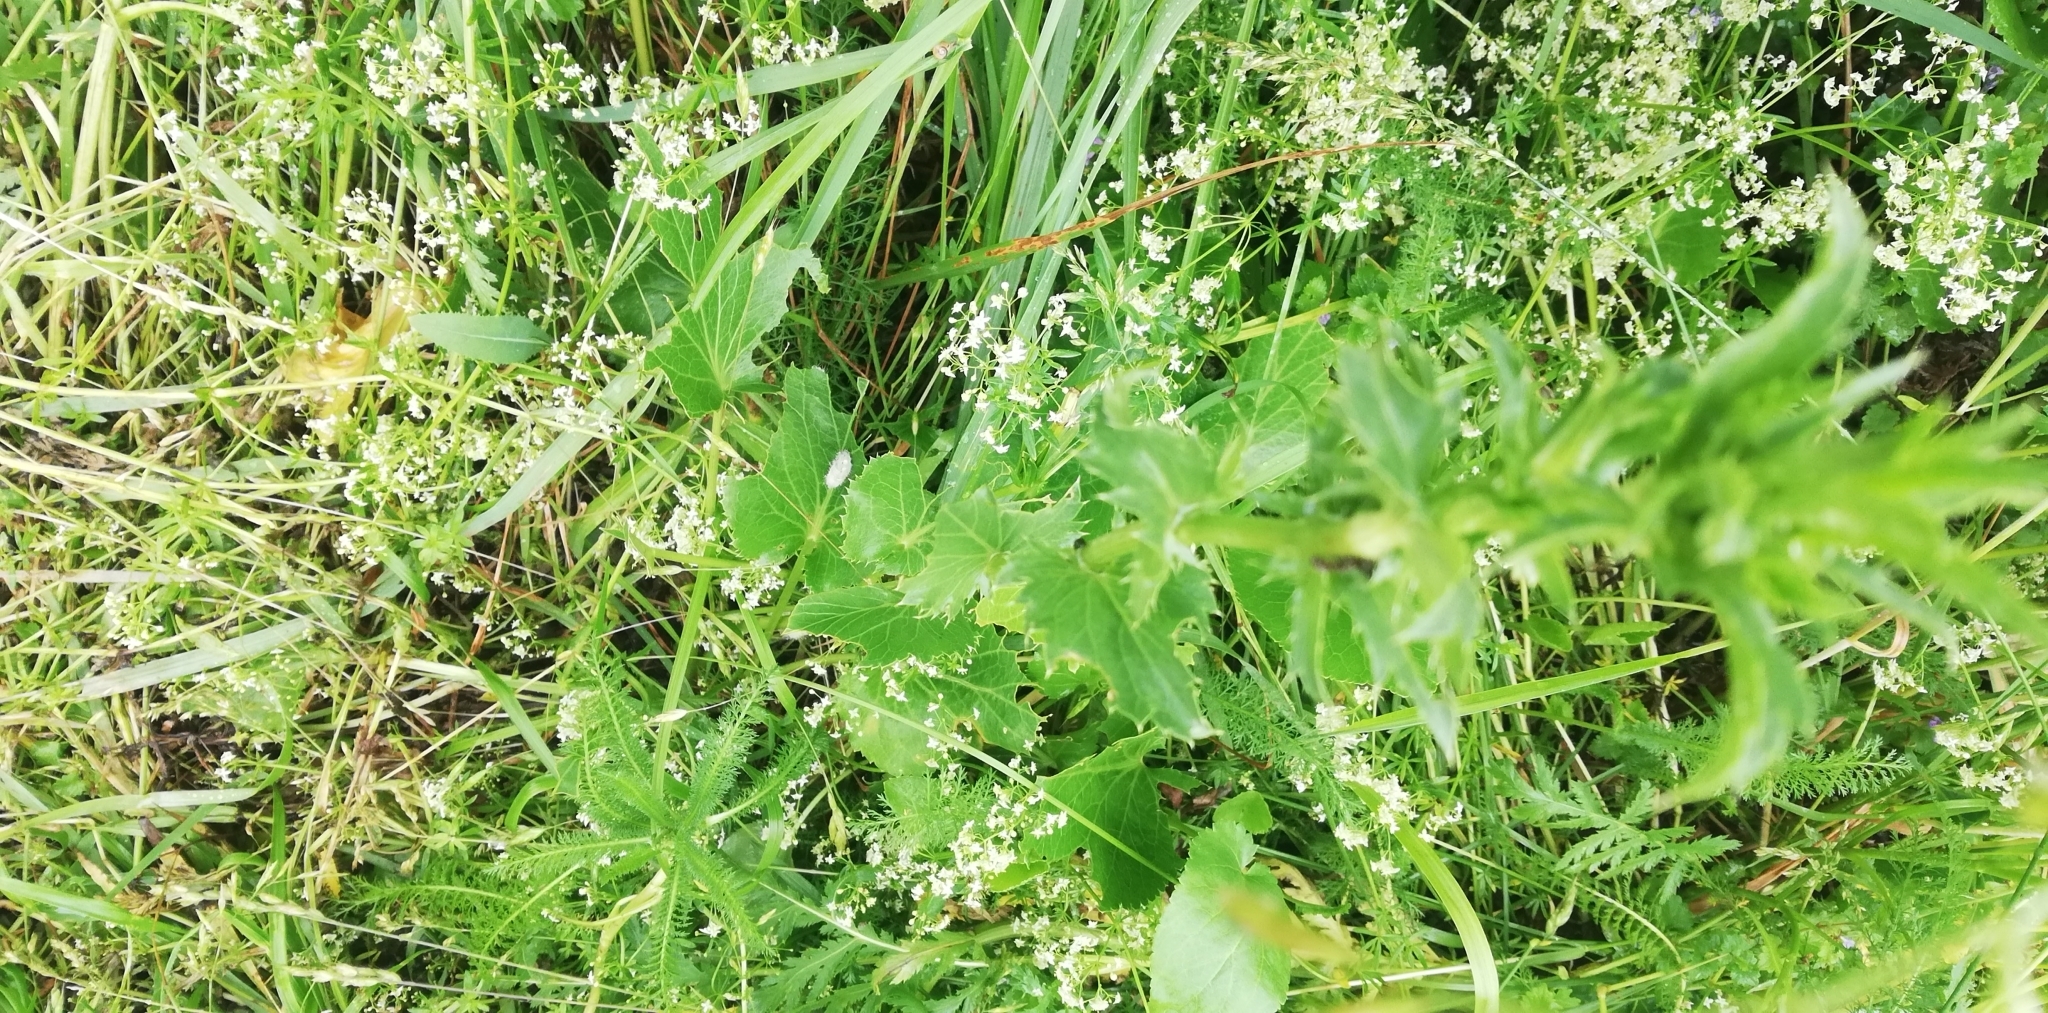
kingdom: Plantae
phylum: Tracheophyta
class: Magnoliopsida
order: Apiales
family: Apiaceae
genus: Eryngium
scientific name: Eryngium planum
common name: Blue eryngo
